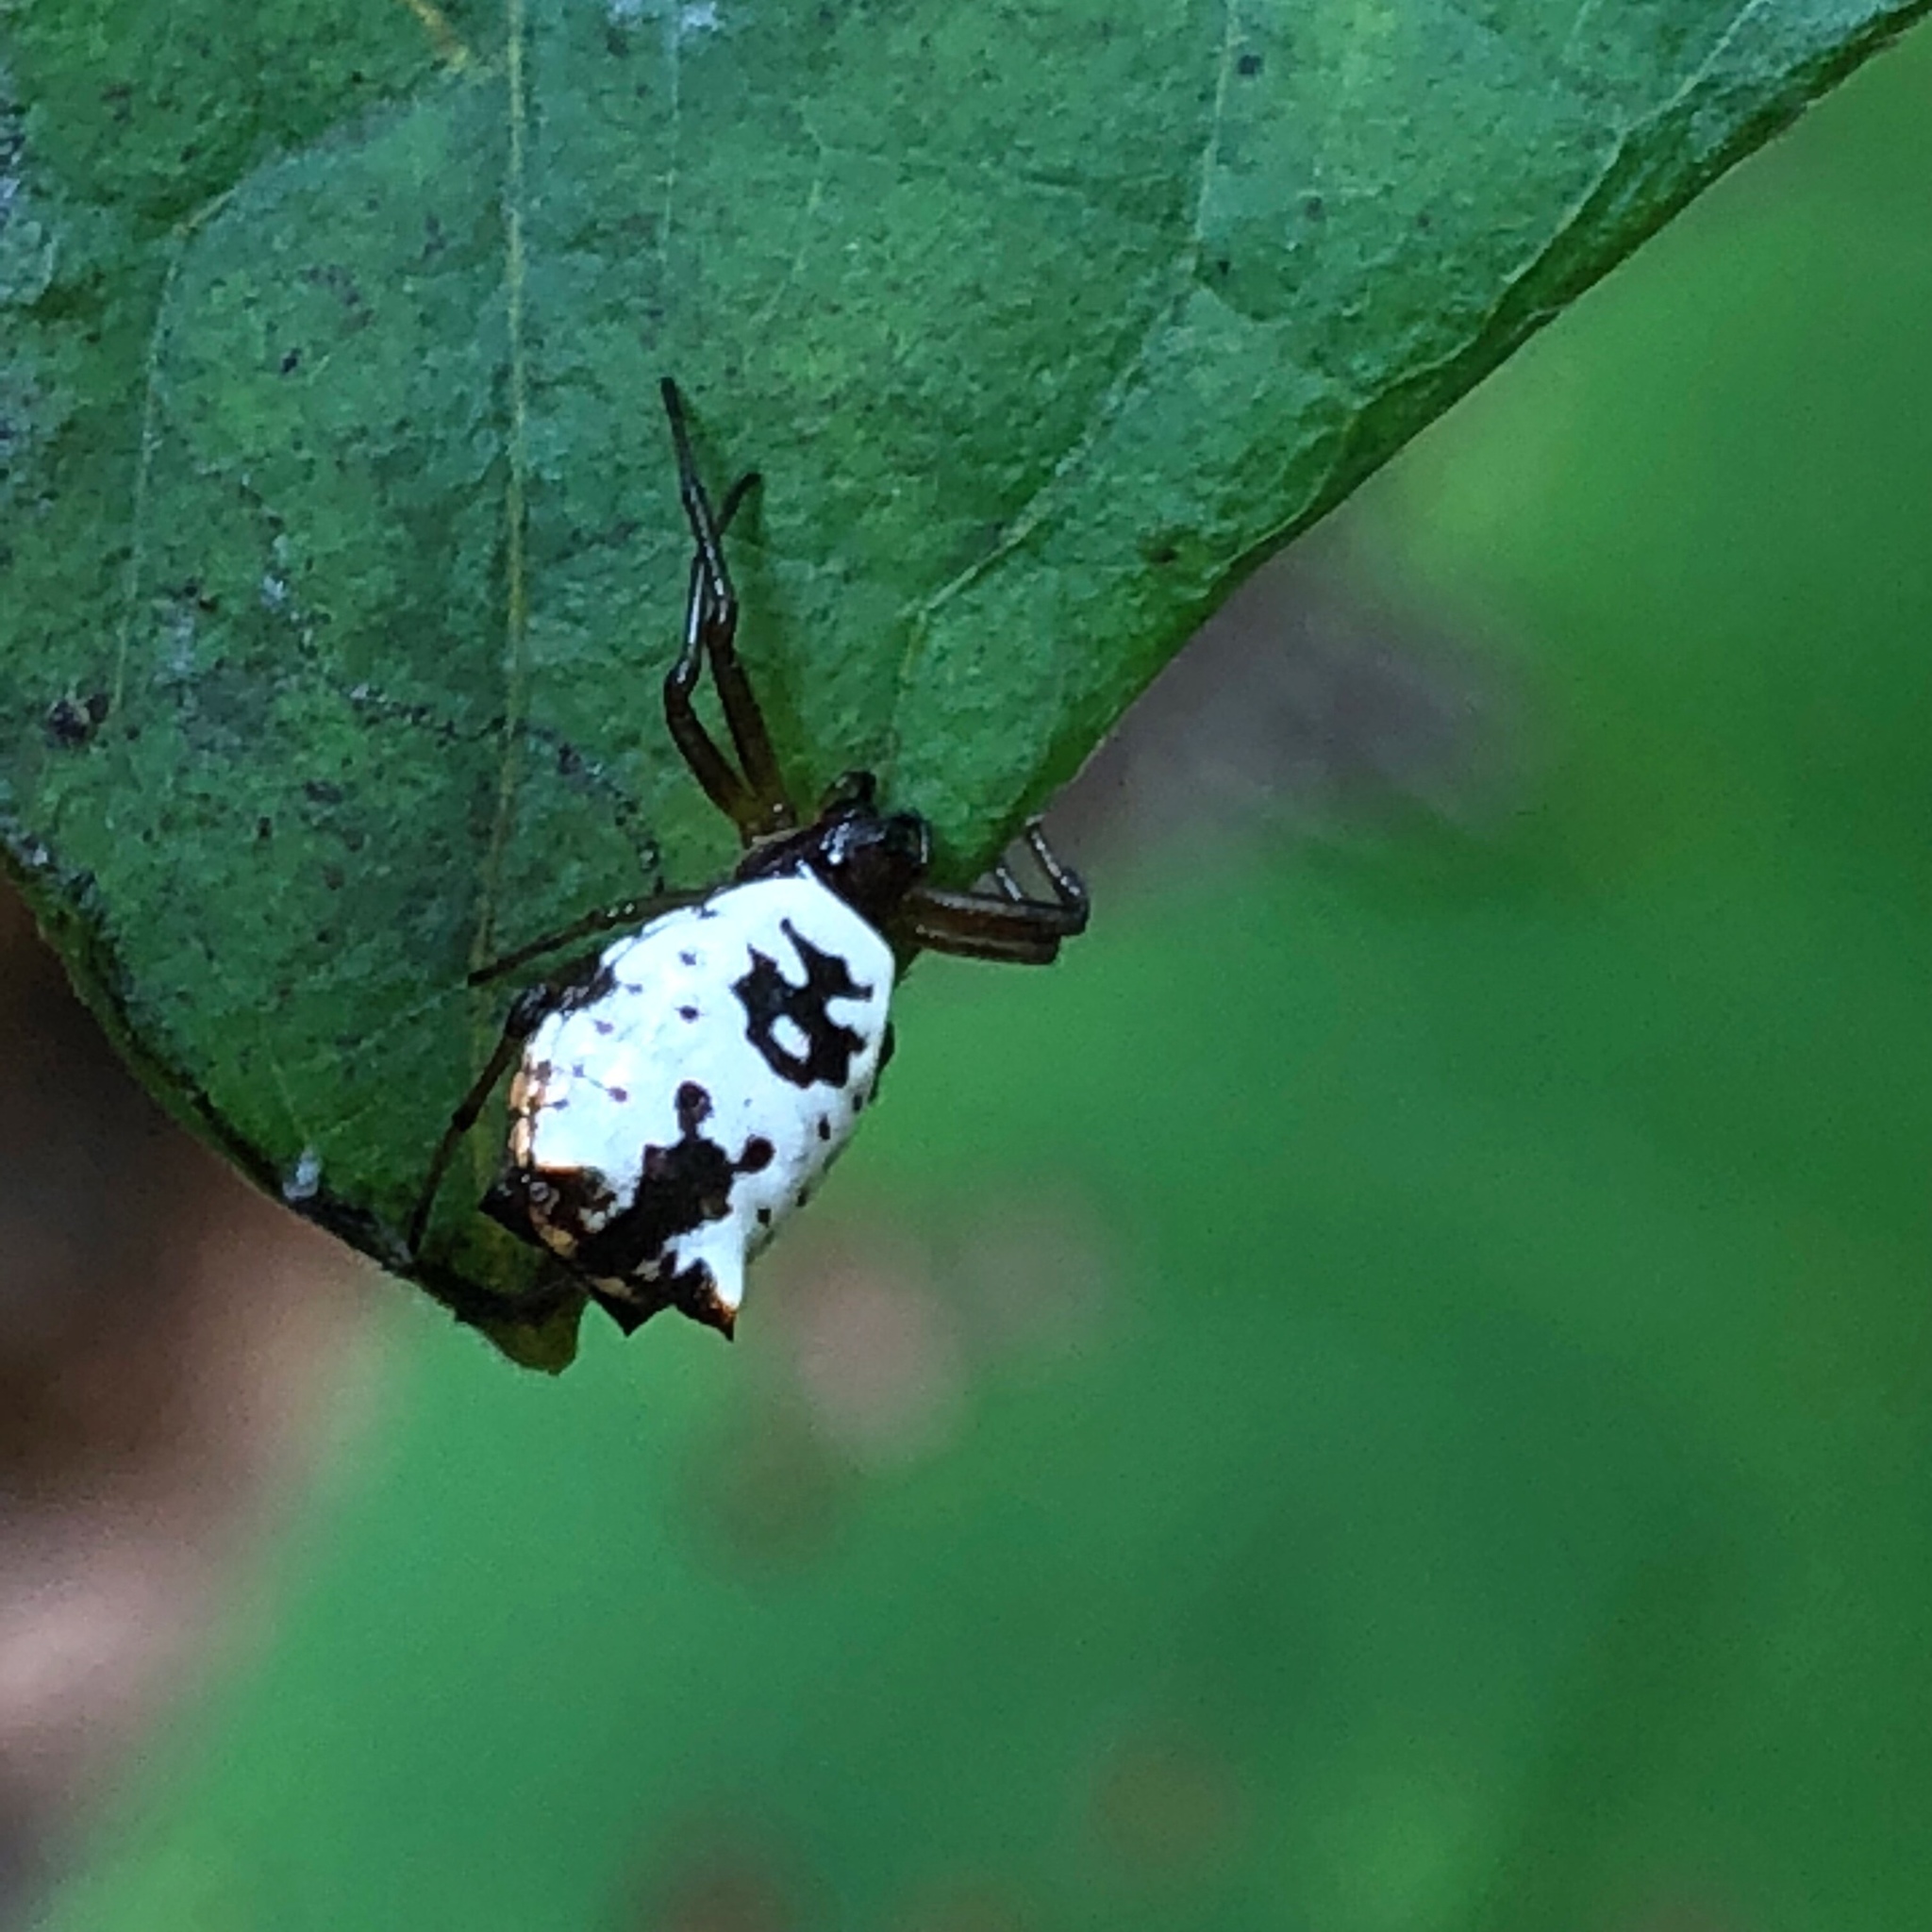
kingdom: Animalia
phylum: Arthropoda
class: Arachnida
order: Araneae
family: Araneidae
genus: Micrathena
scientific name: Micrathena mitrata
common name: Orb weavers
